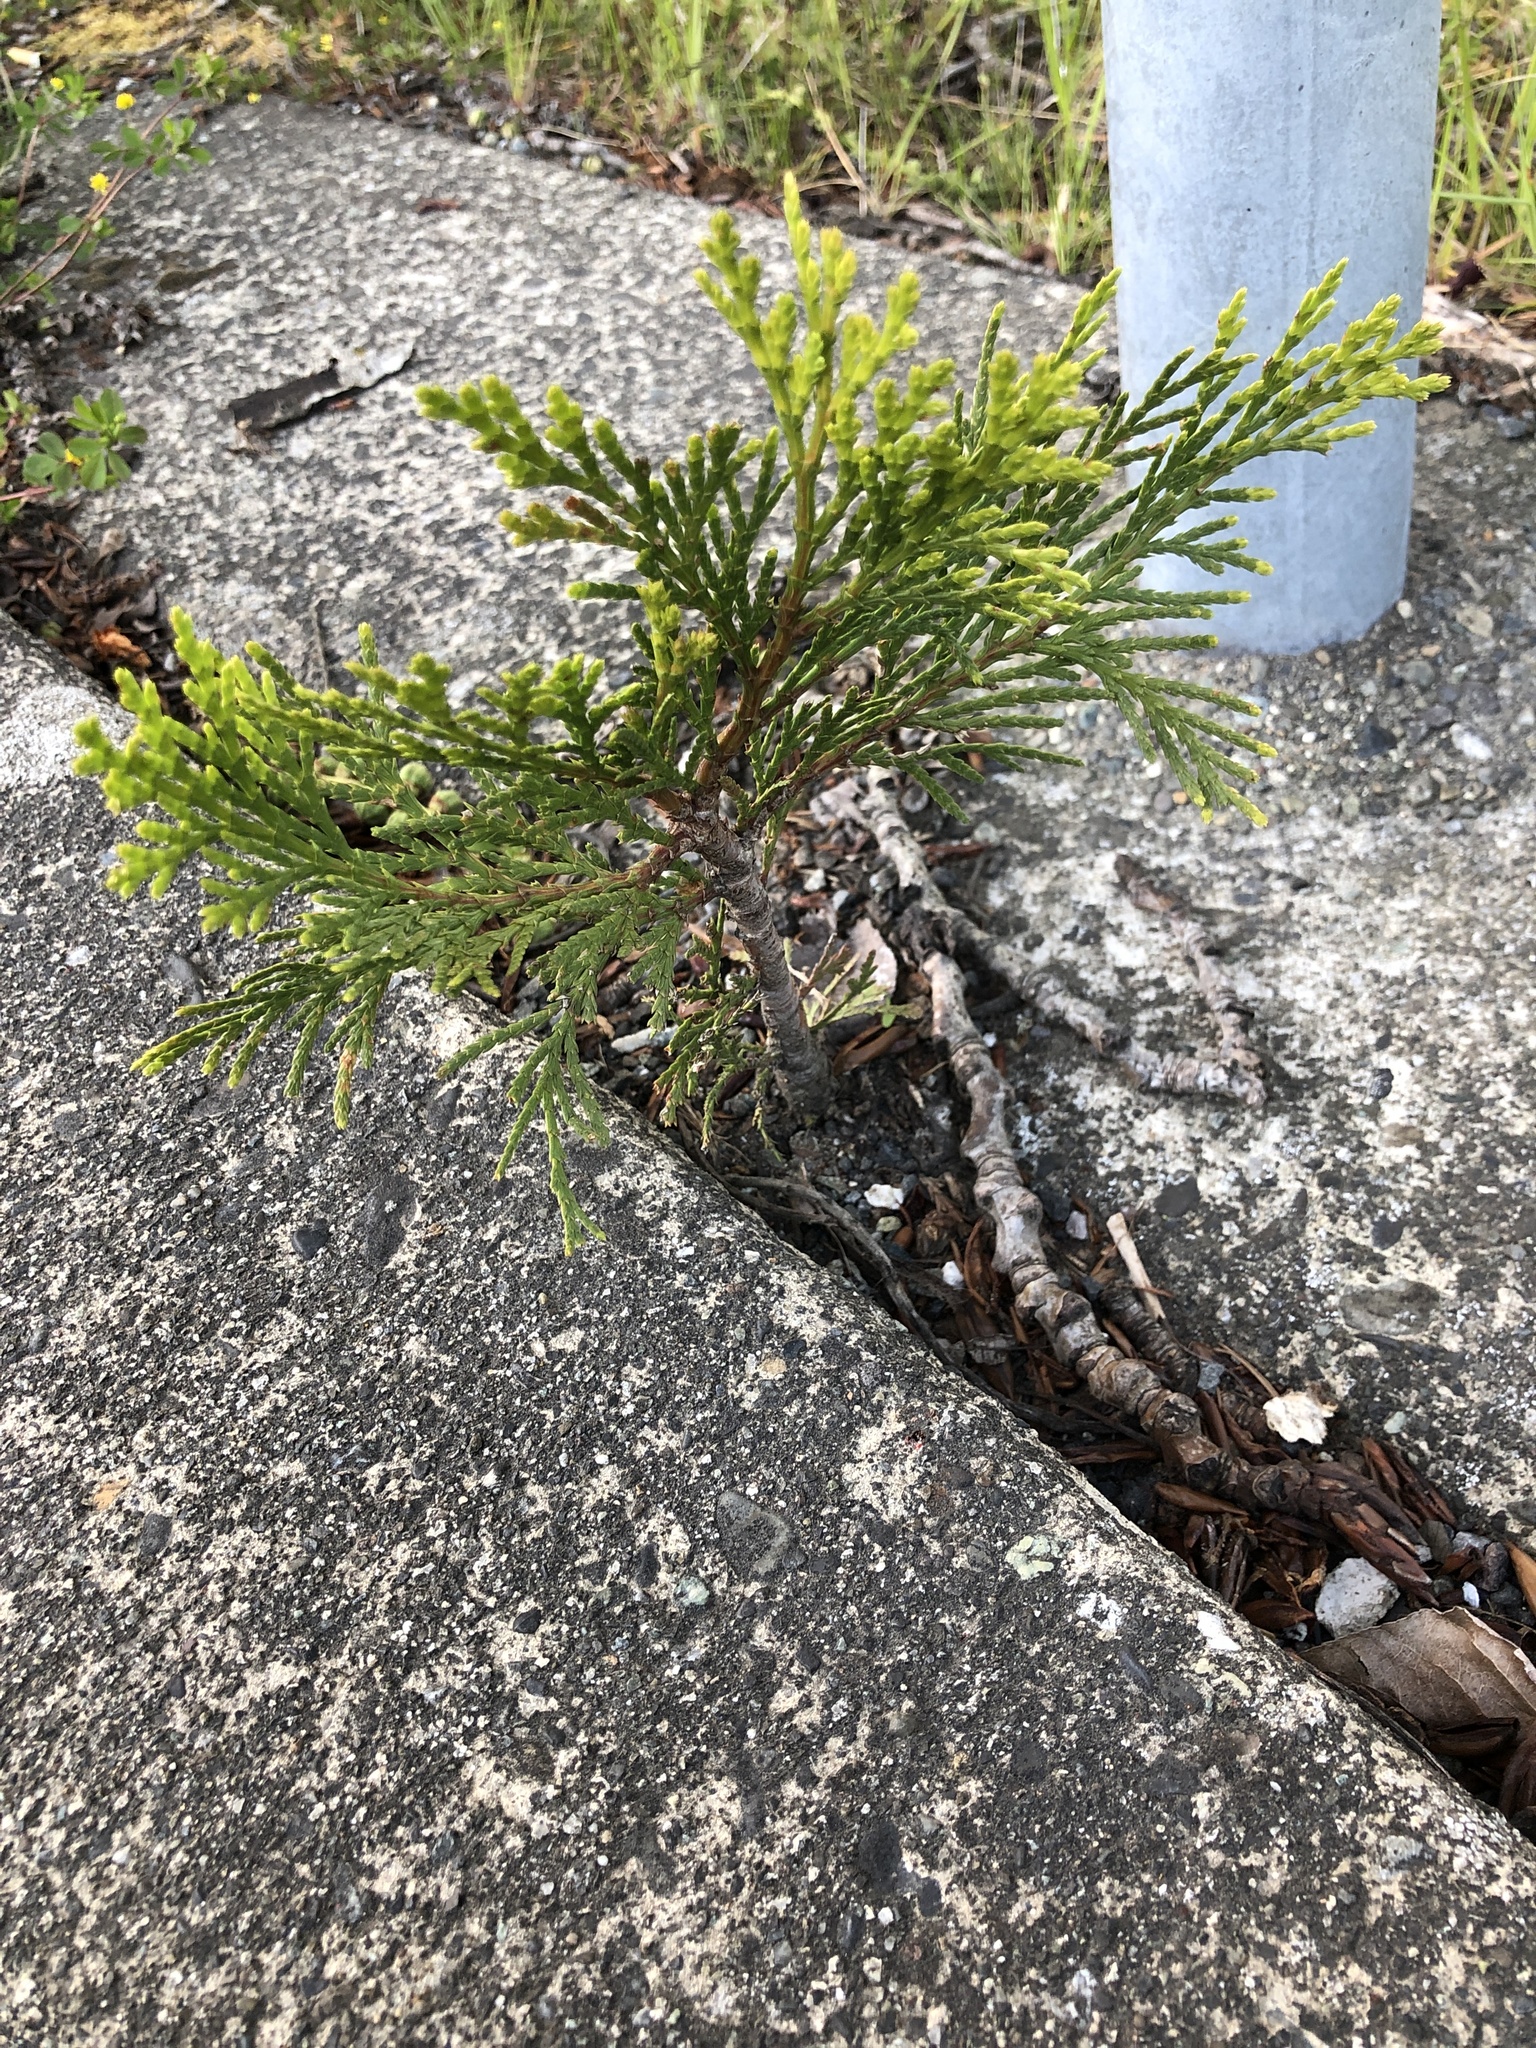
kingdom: Plantae
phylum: Tracheophyta
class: Pinopsida
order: Pinales
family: Cupressaceae
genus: Calocedrus
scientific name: Calocedrus decurrens
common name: Californian incense-cedar
